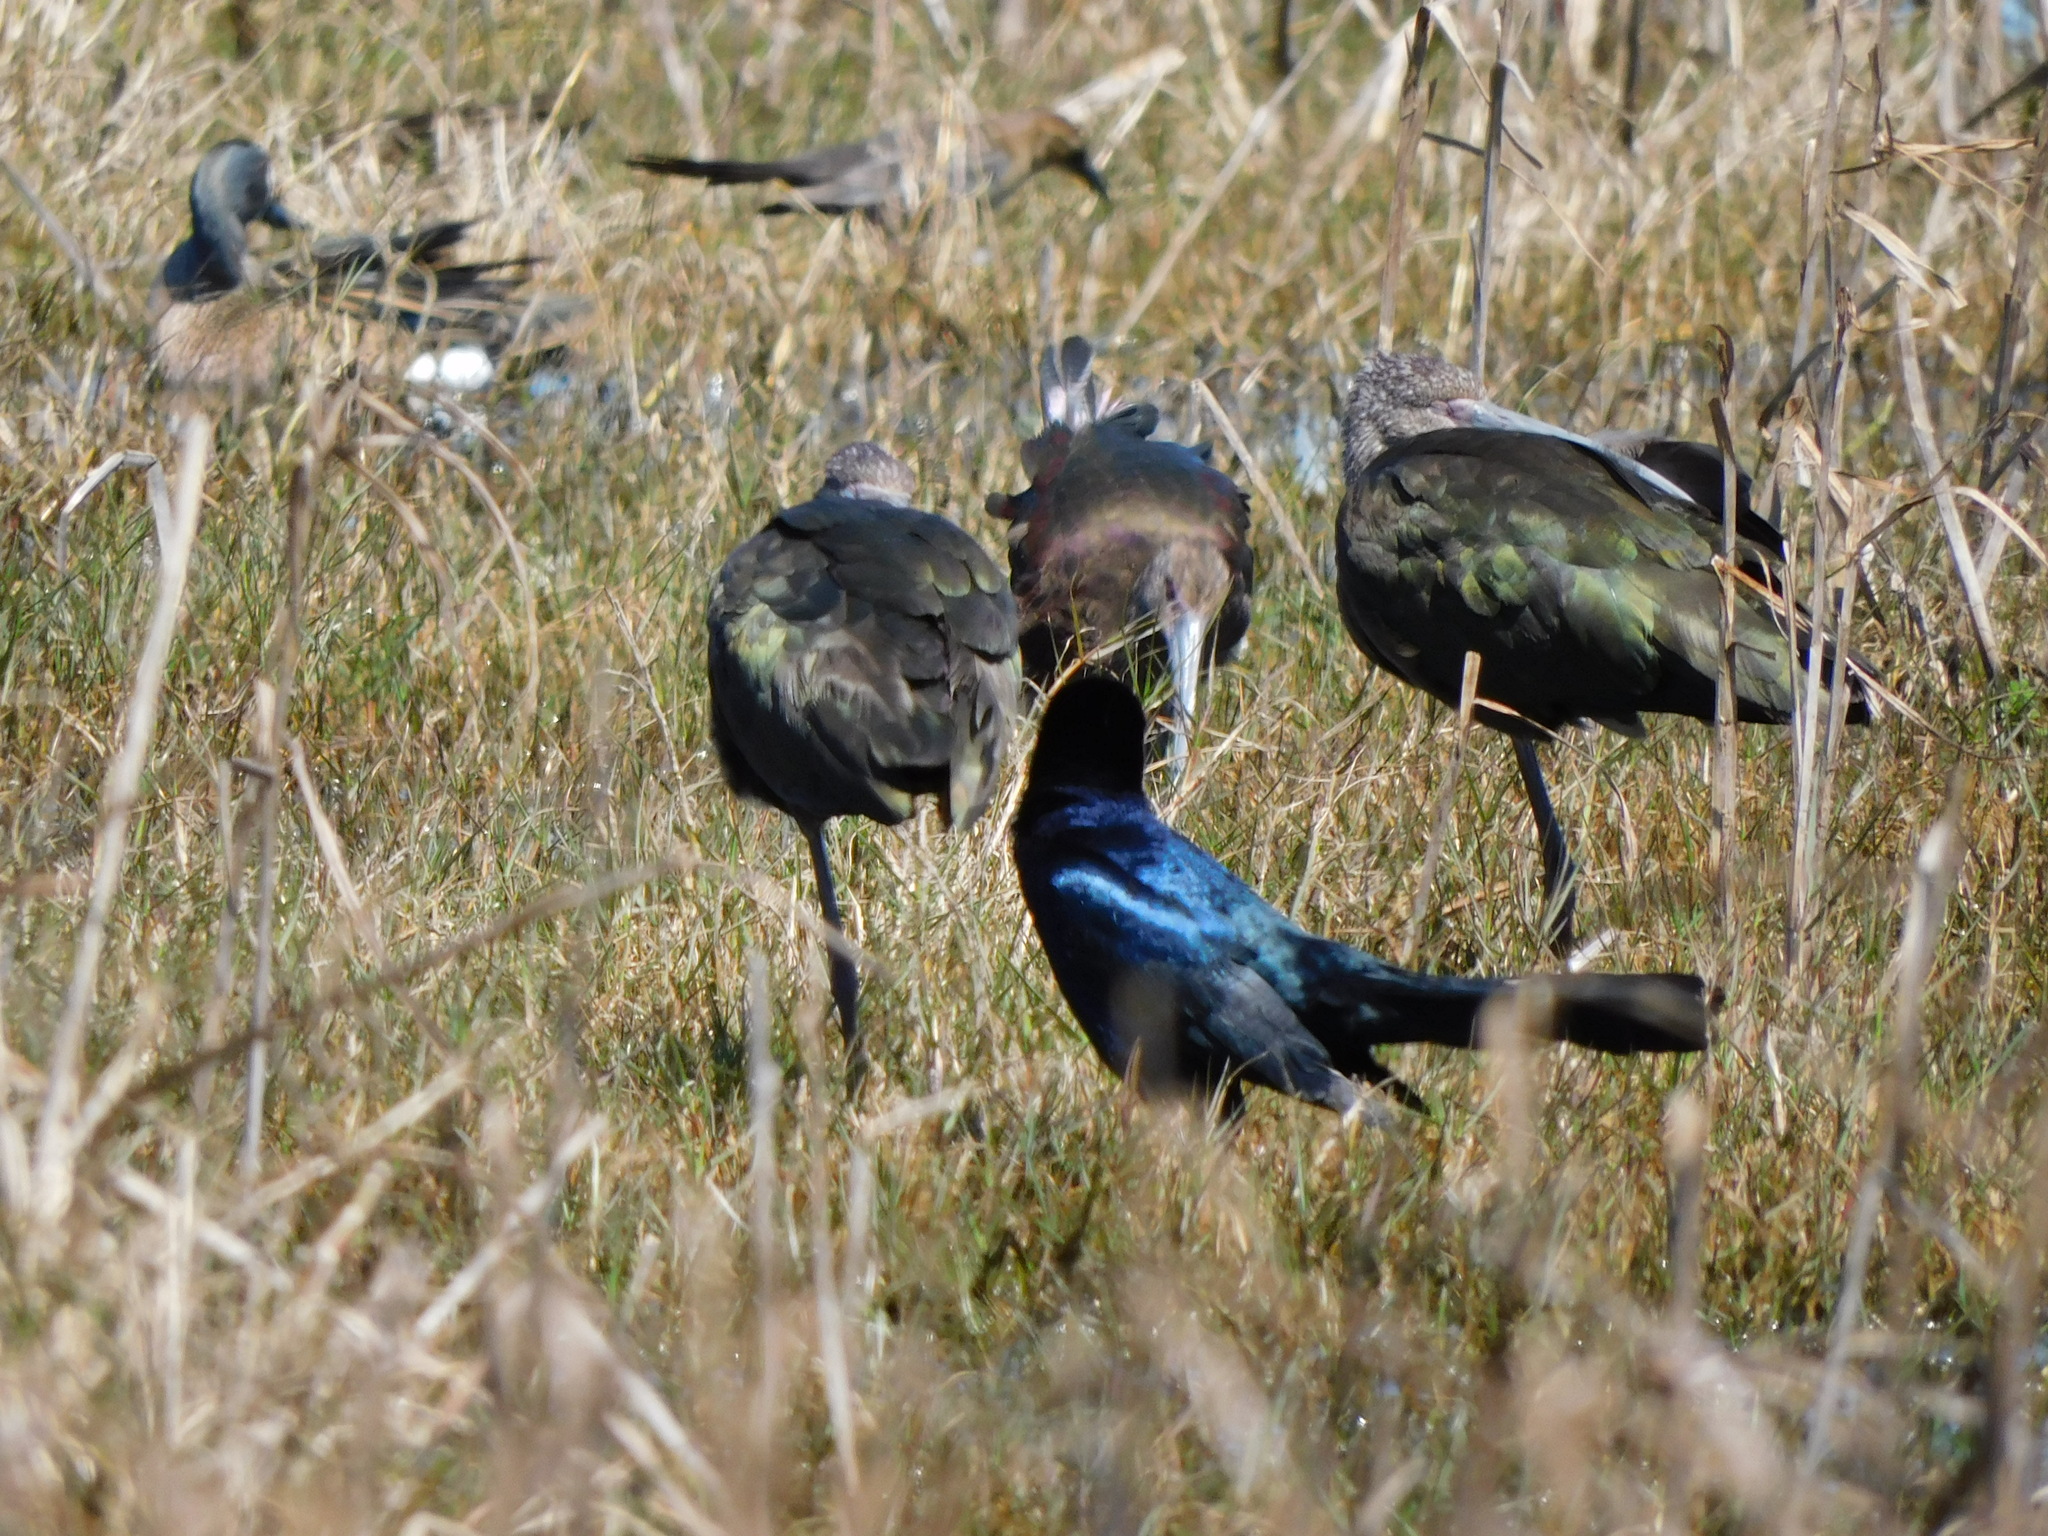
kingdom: Animalia
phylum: Chordata
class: Aves
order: Passeriformes
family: Icteridae
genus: Quiscalus
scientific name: Quiscalus major
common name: Boat-tailed grackle
